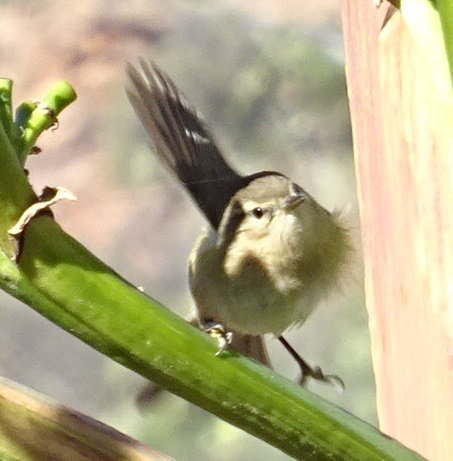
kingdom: Animalia
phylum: Chordata
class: Aves
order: Passeriformes
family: Phylloscopidae
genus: Phylloscopus
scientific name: Phylloscopus canariensis
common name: Canary islands chiffchaff
